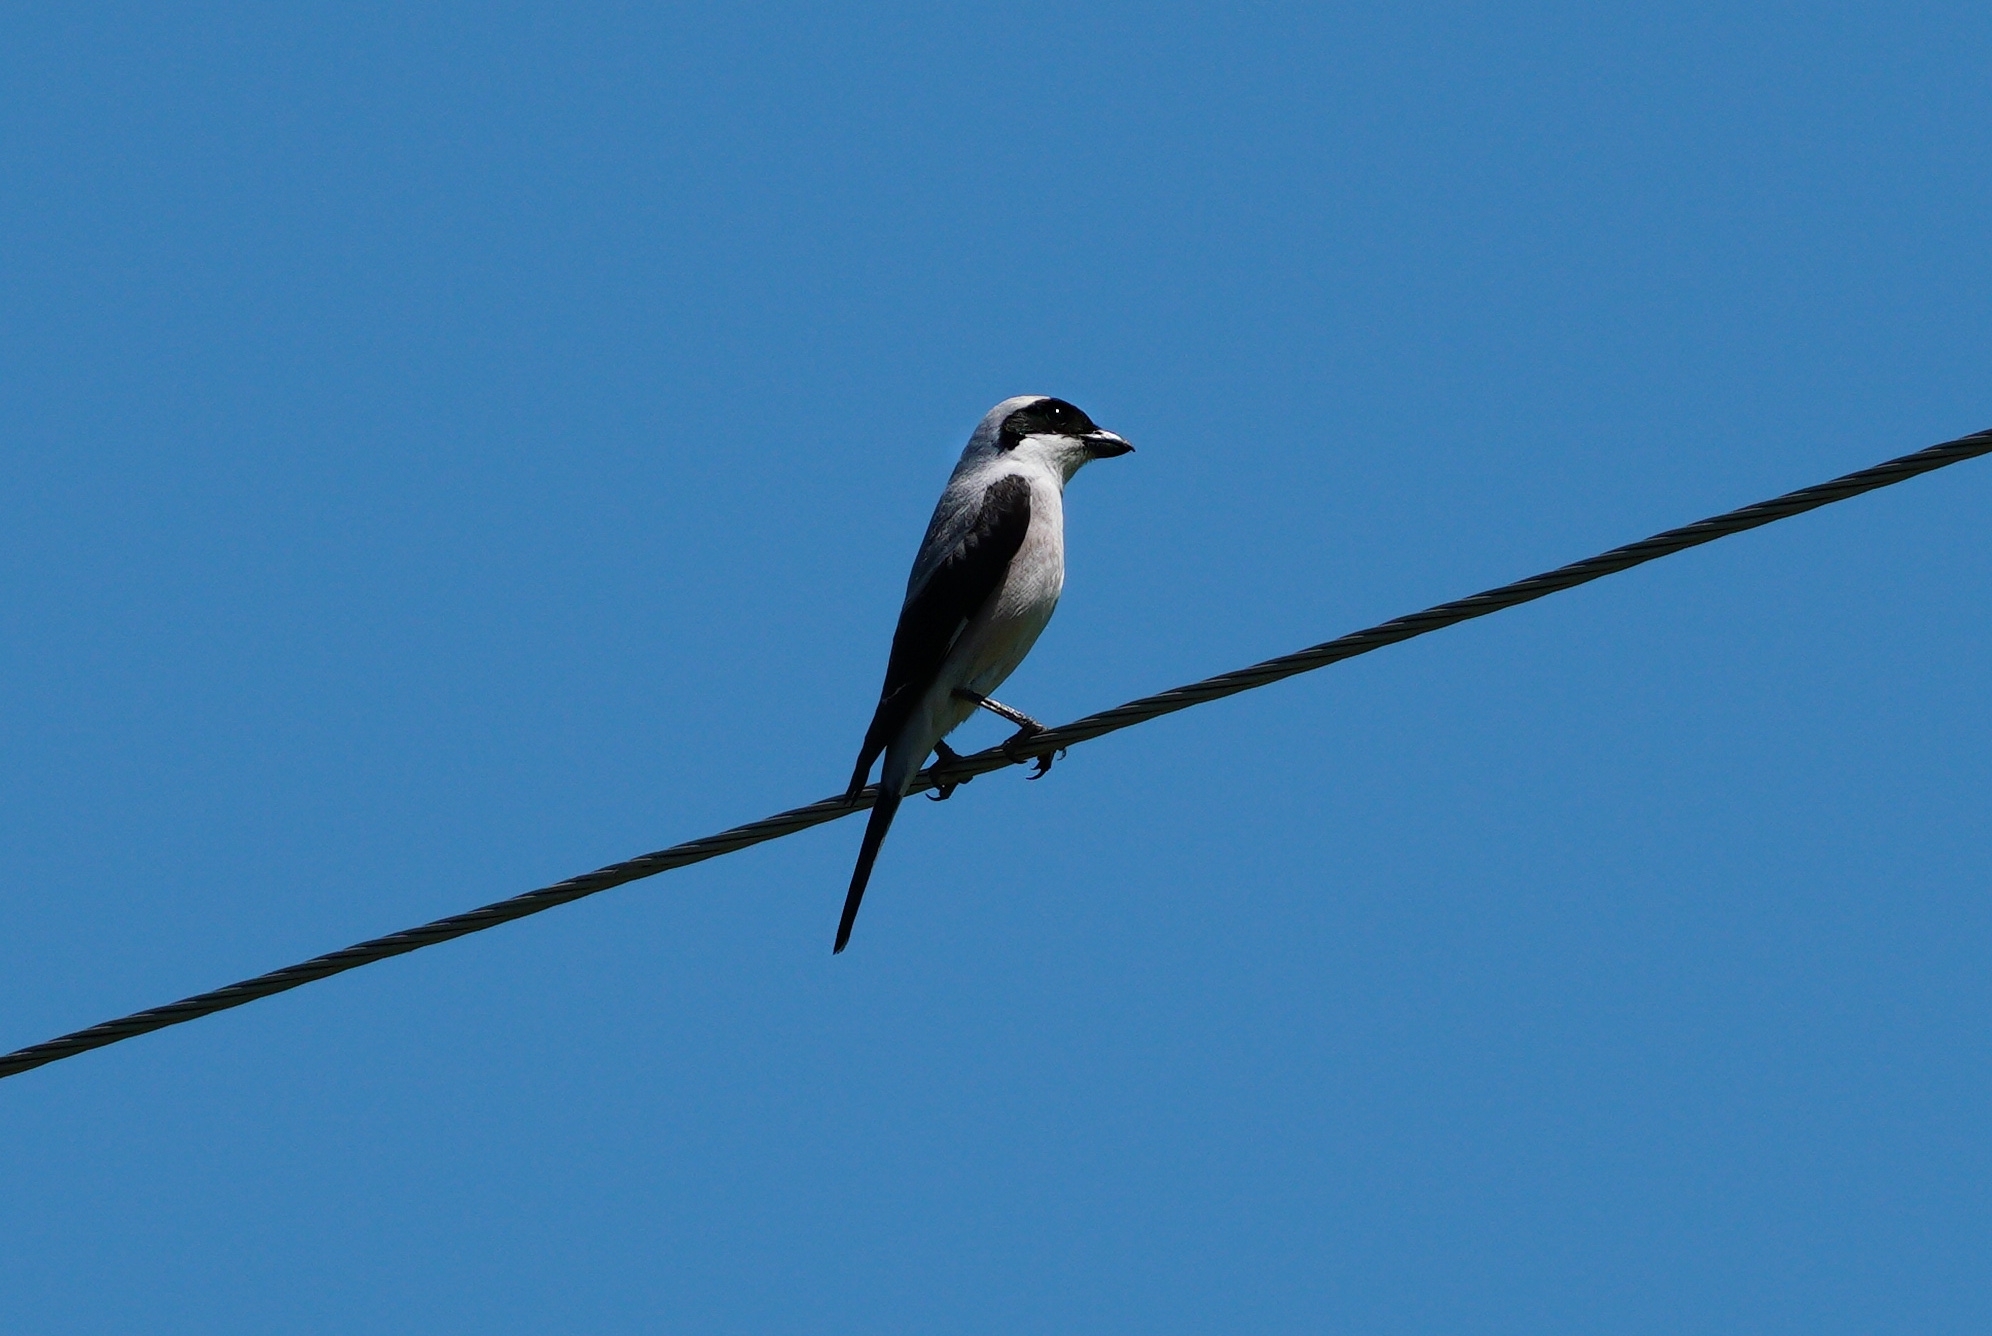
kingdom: Animalia
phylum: Chordata
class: Aves
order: Passeriformes
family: Laniidae
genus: Lanius
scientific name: Lanius minor
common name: Lesser grey shrike
